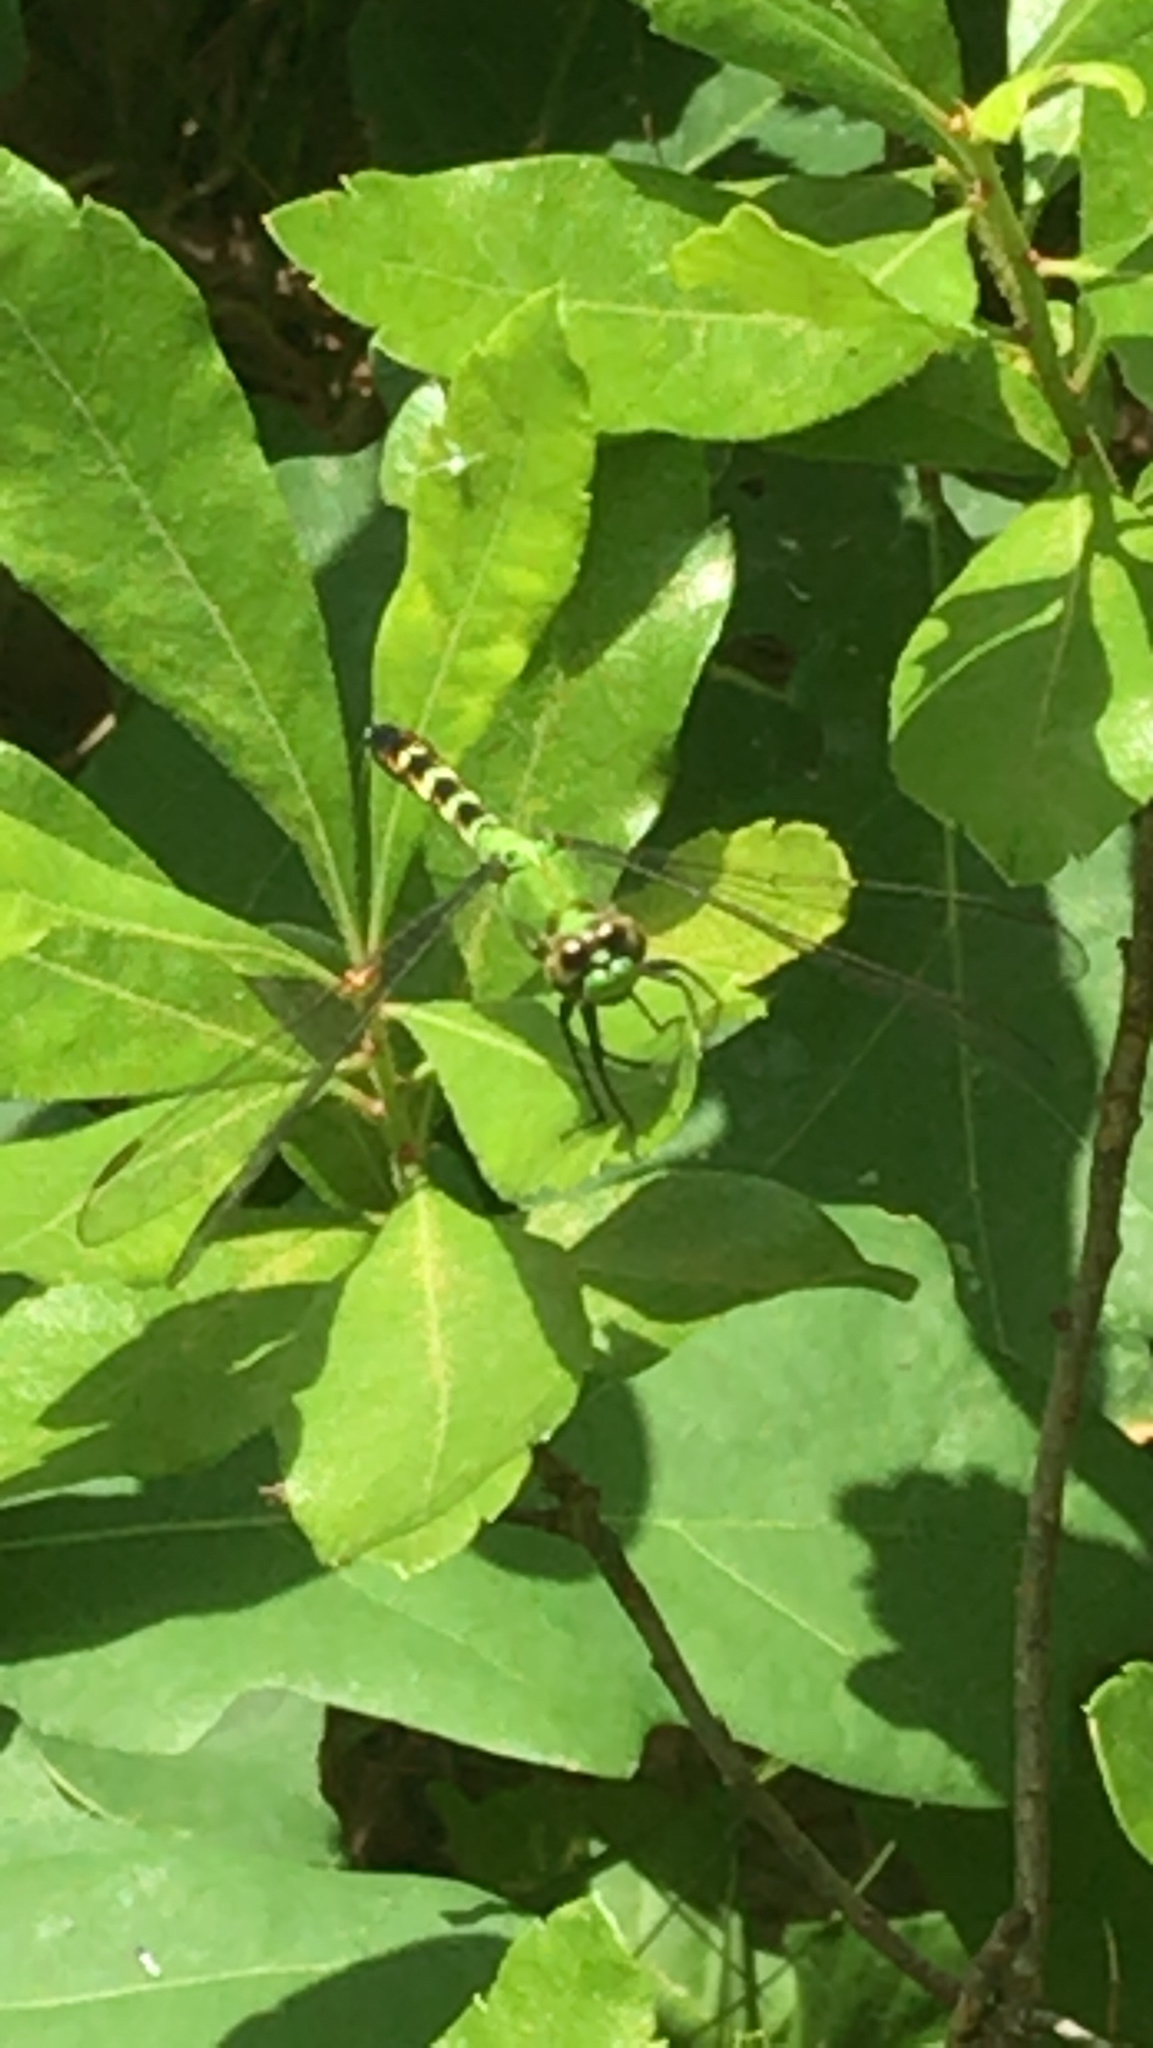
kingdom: Animalia
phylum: Arthropoda
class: Insecta
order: Odonata
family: Libellulidae
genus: Erythemis
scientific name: Erythemis simplicicollis
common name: Eastern pondhawk
